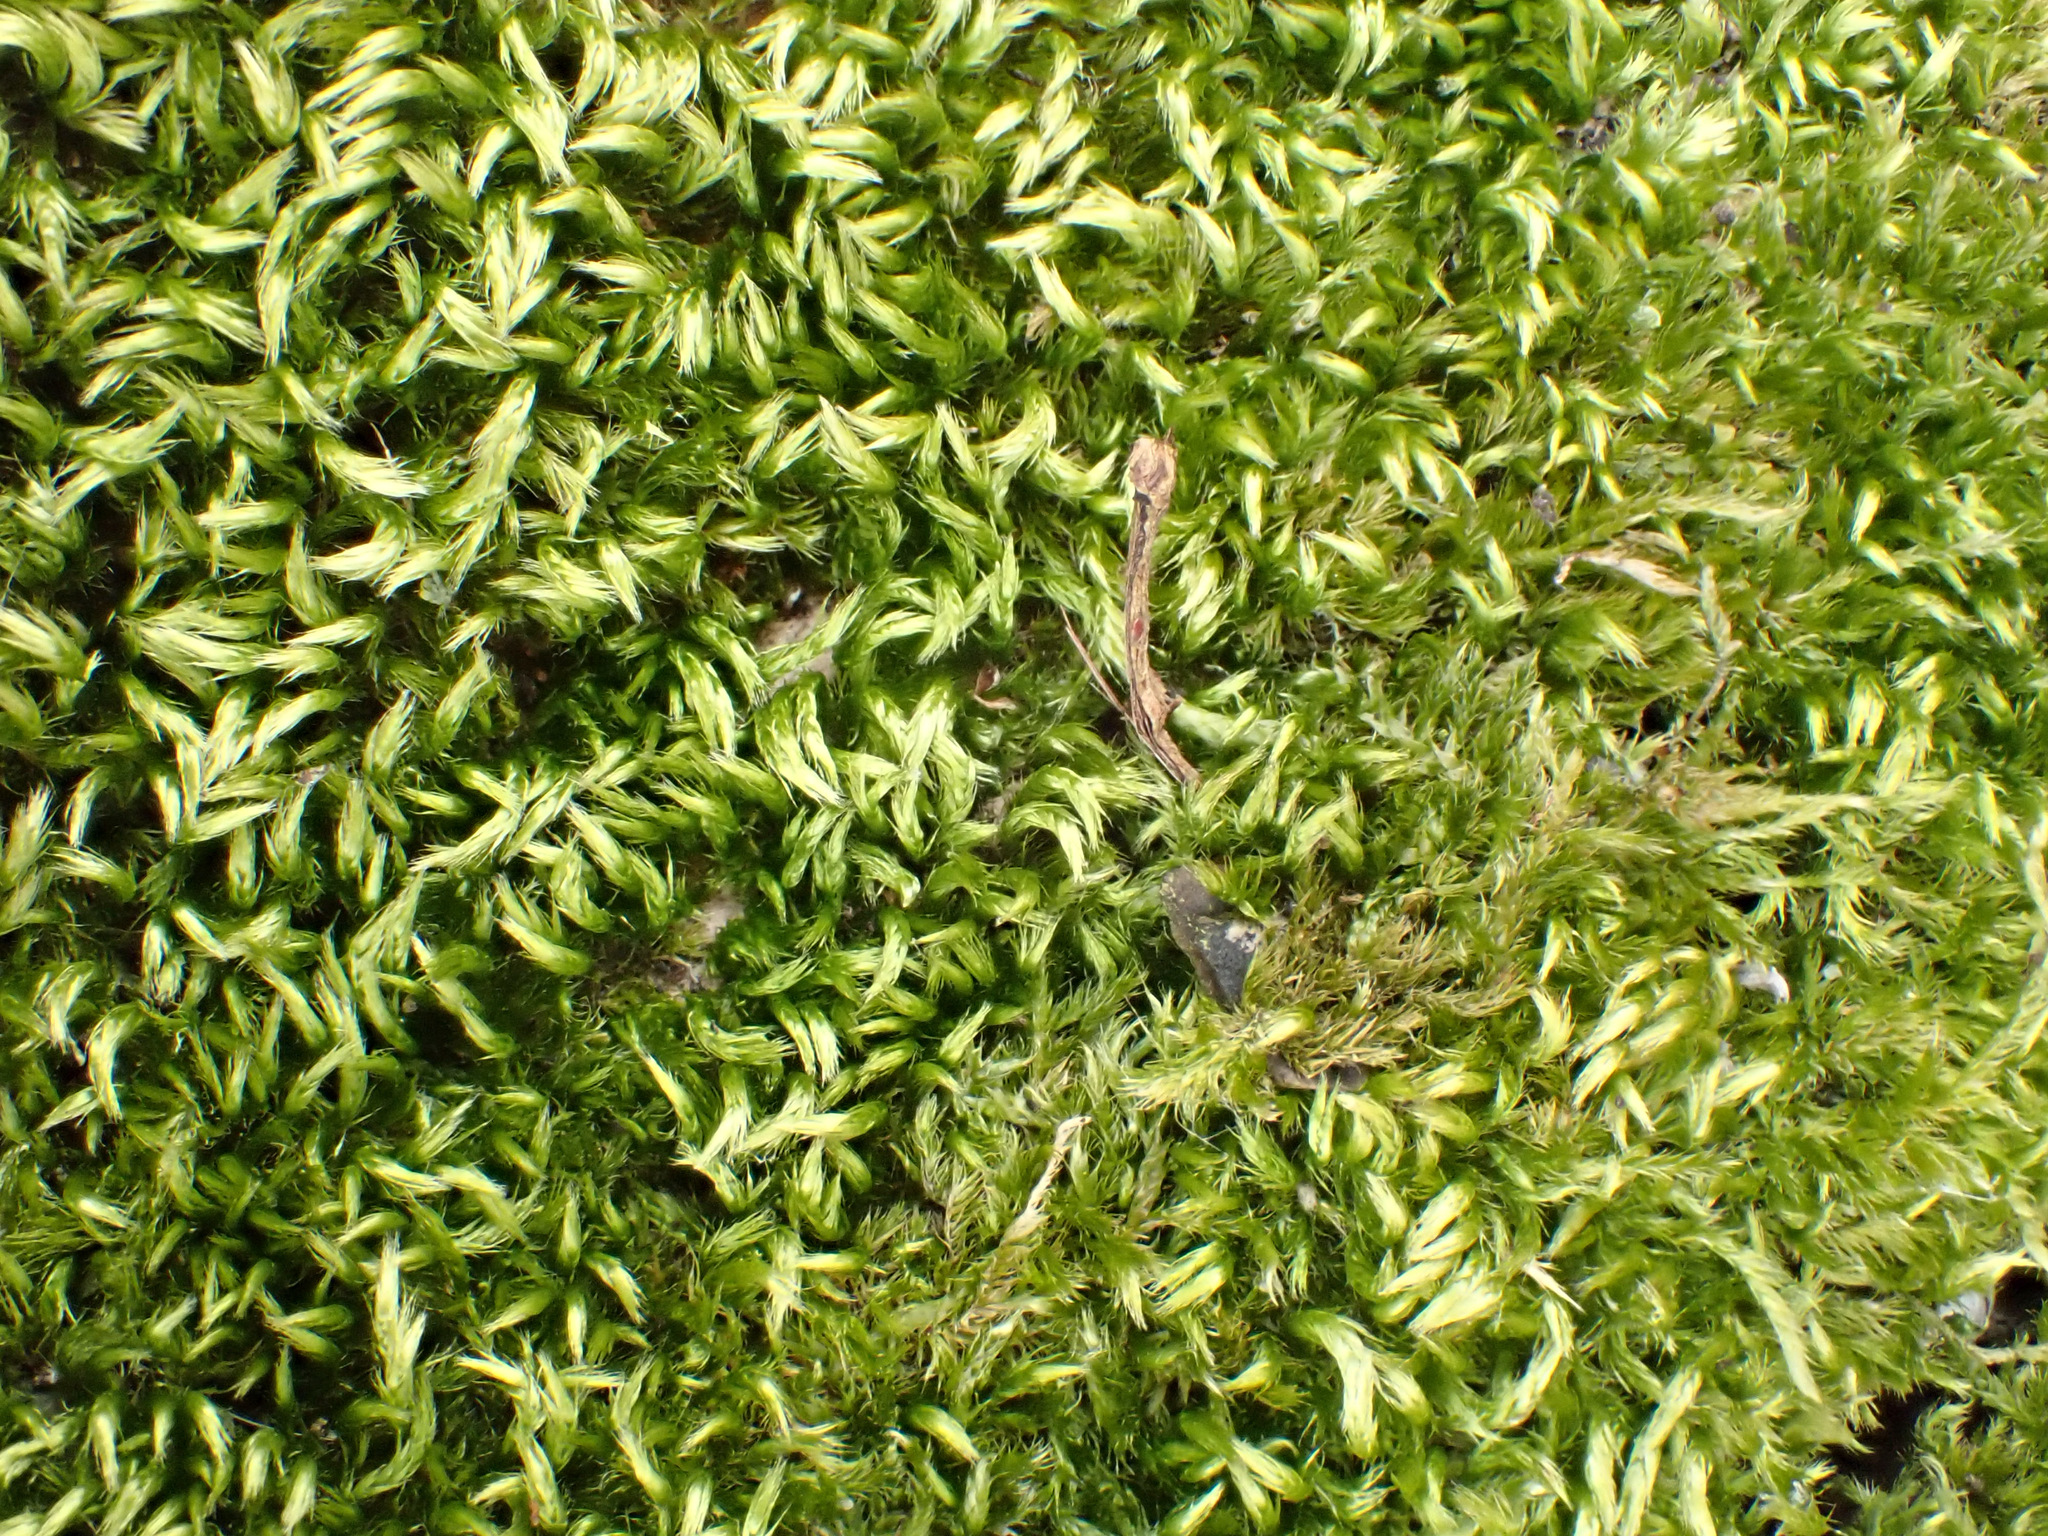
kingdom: Plantae
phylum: Bryophyta
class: Bryopsida
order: Hypnales
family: Brachytheciaceae
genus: Homalothecium
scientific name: Homalothecium sericeum
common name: Silky wall feather-moss
